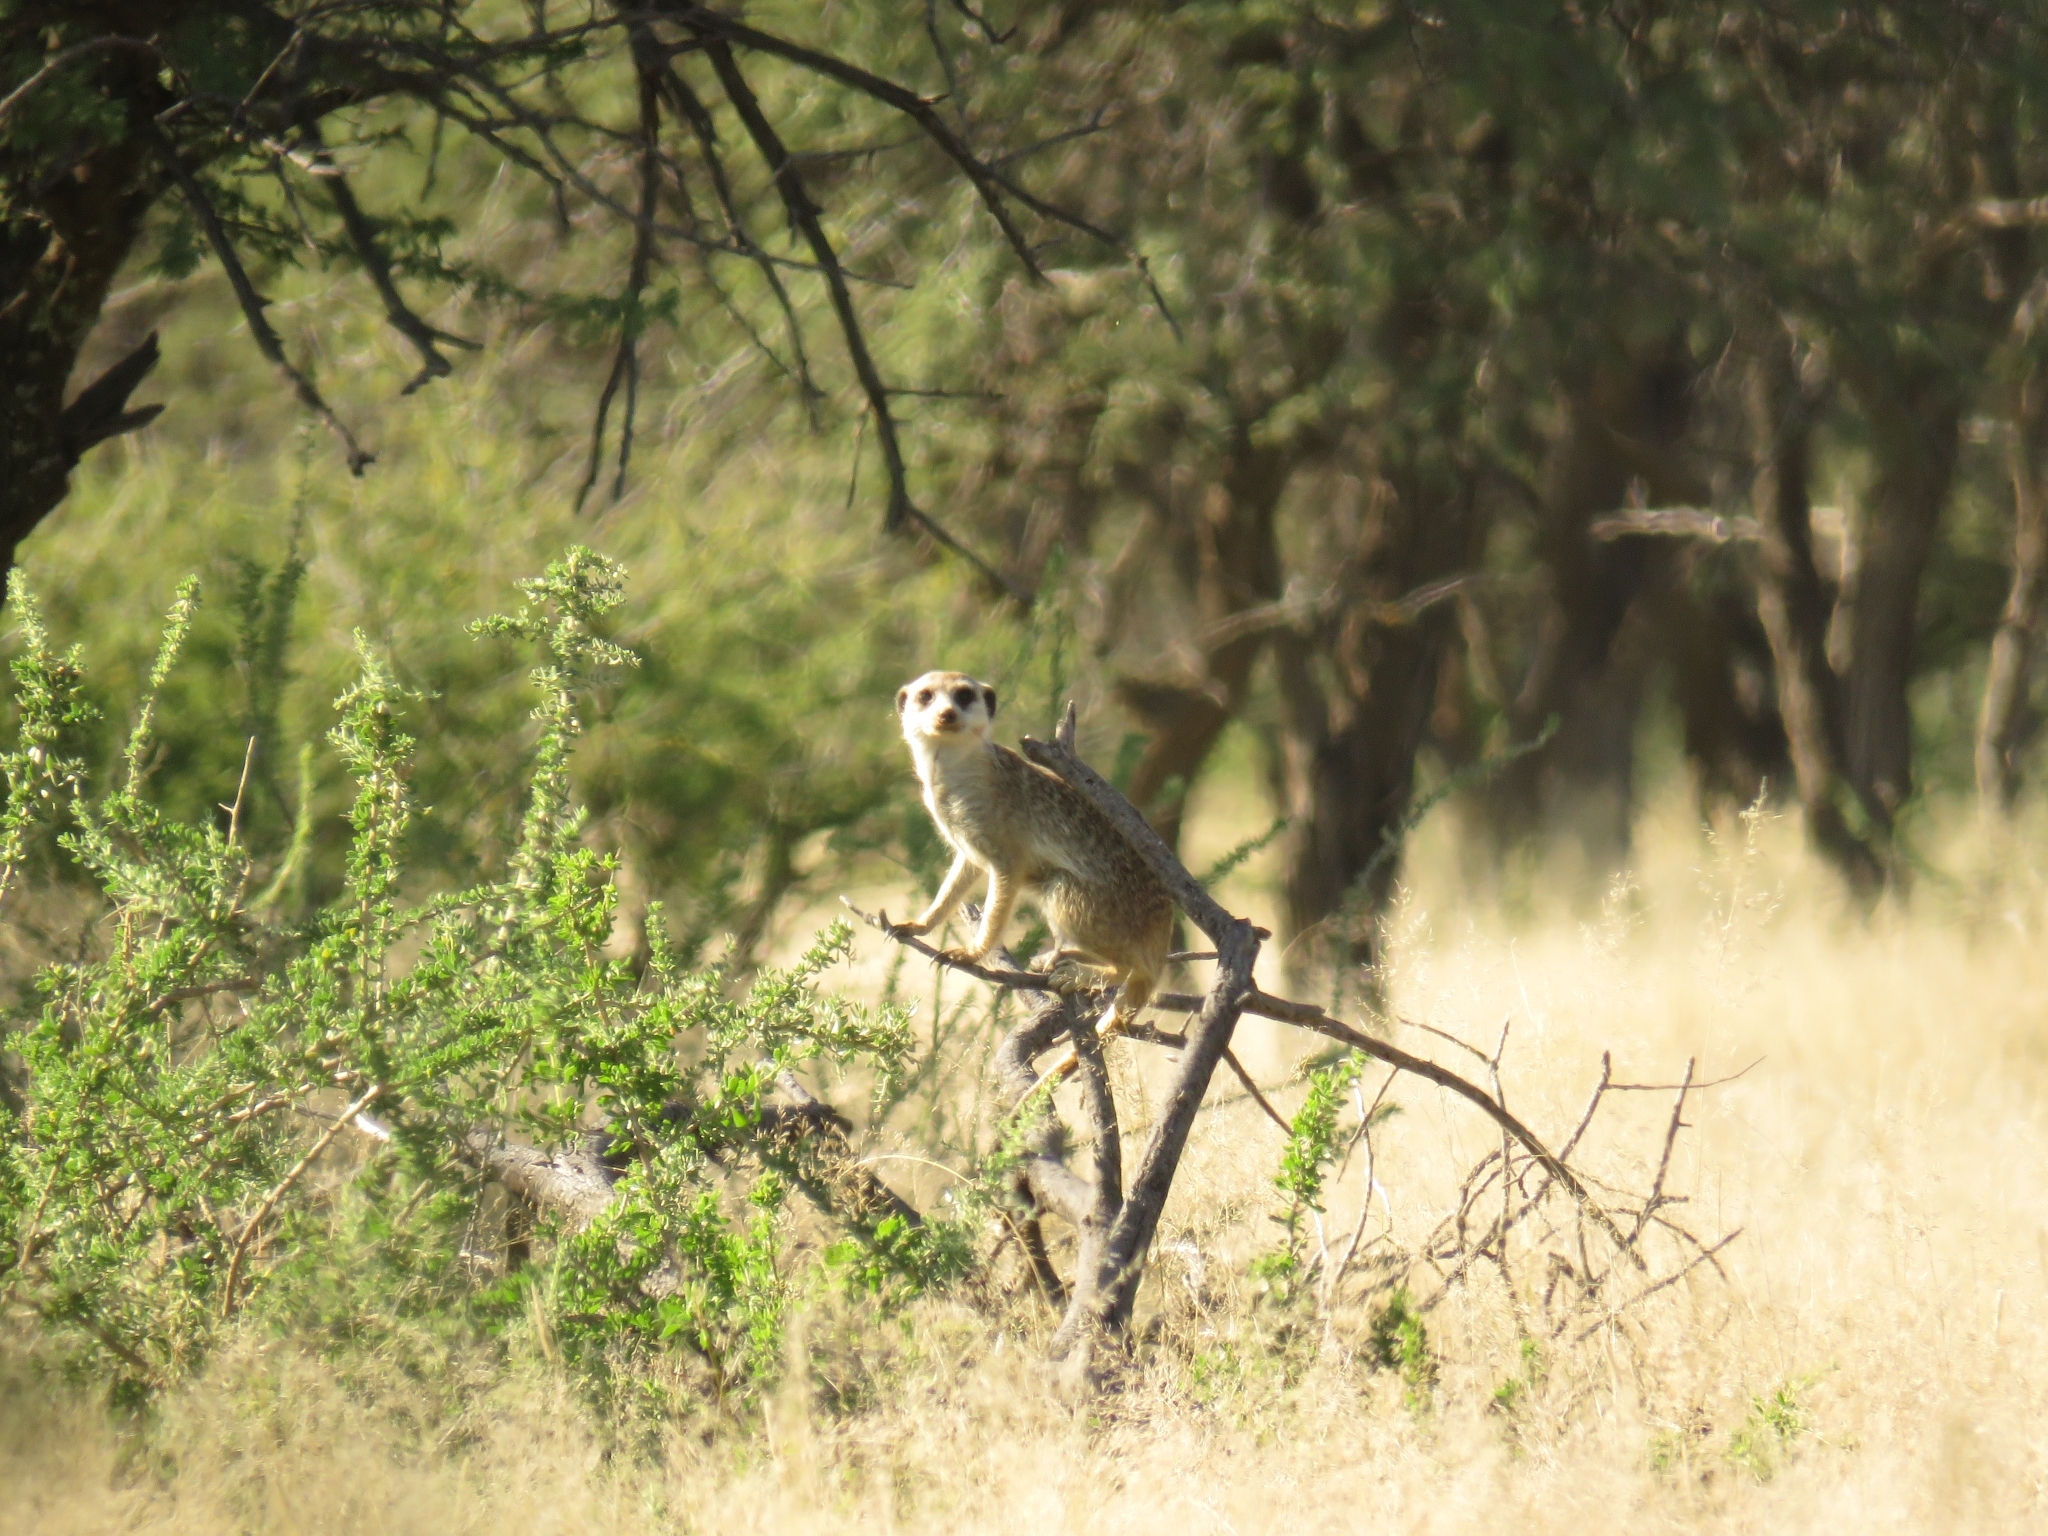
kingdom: Animalia
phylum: Chordata
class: Mammalia
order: Carnivora
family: Herpestidae
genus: Suricata
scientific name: Suricata suricatta
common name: Meerkat
